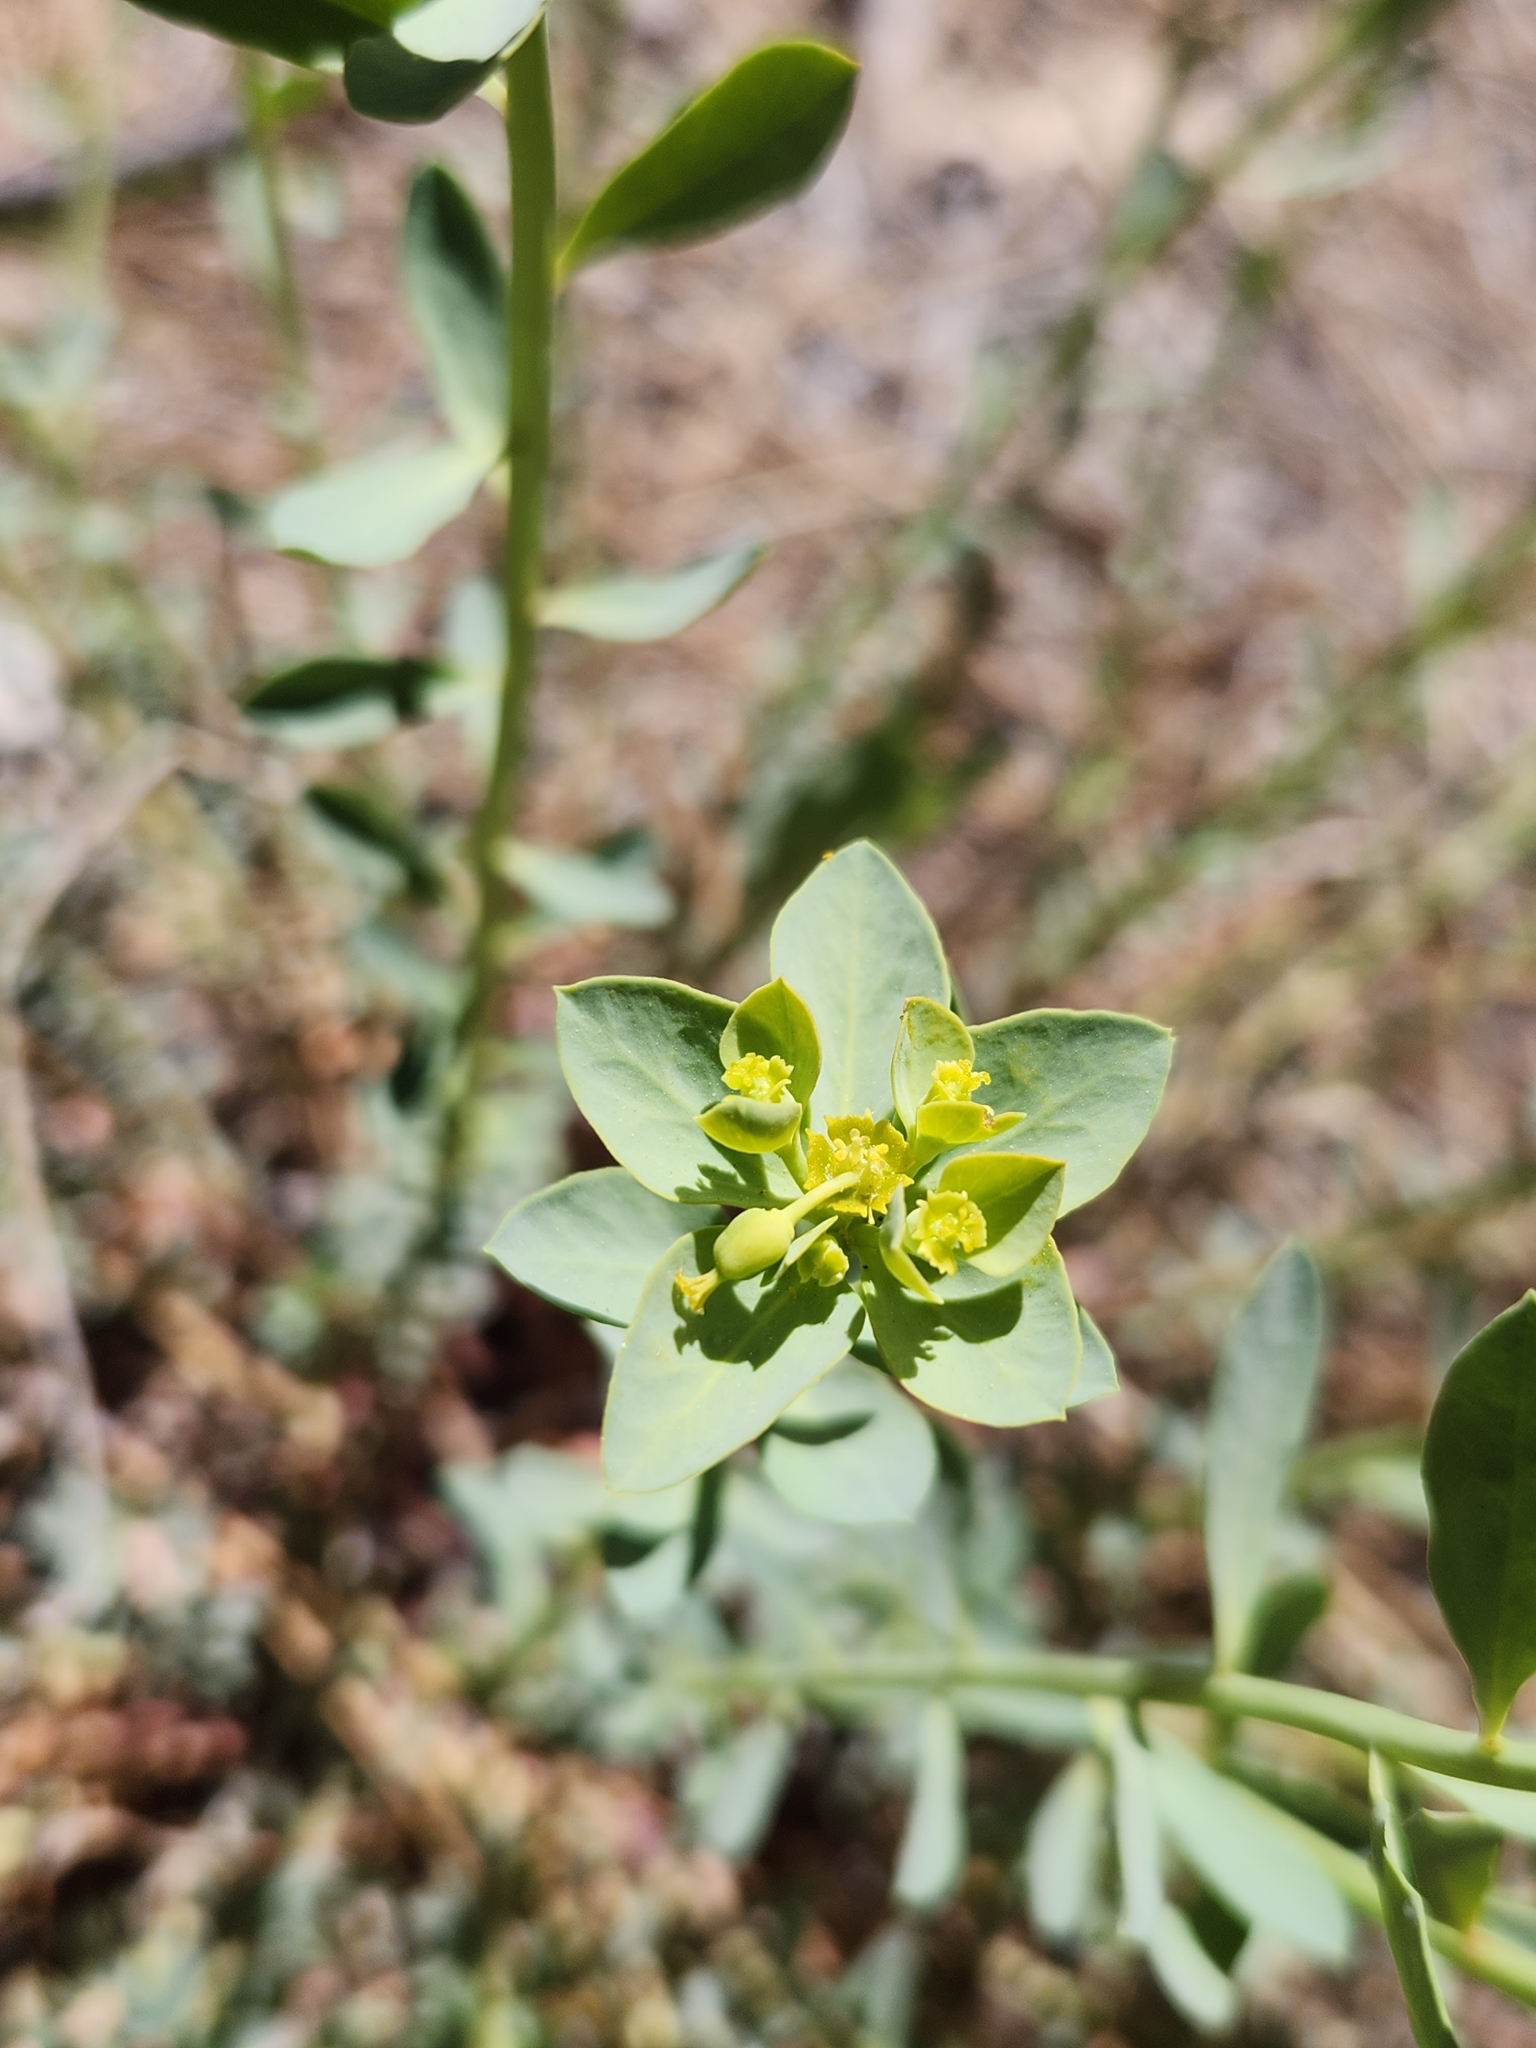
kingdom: Plantae
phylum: Tracheophyta
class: Magnoliopsida
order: Malpighiales
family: Euphorbiaceae
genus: Euphorbia
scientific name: Euphorbia lurida
